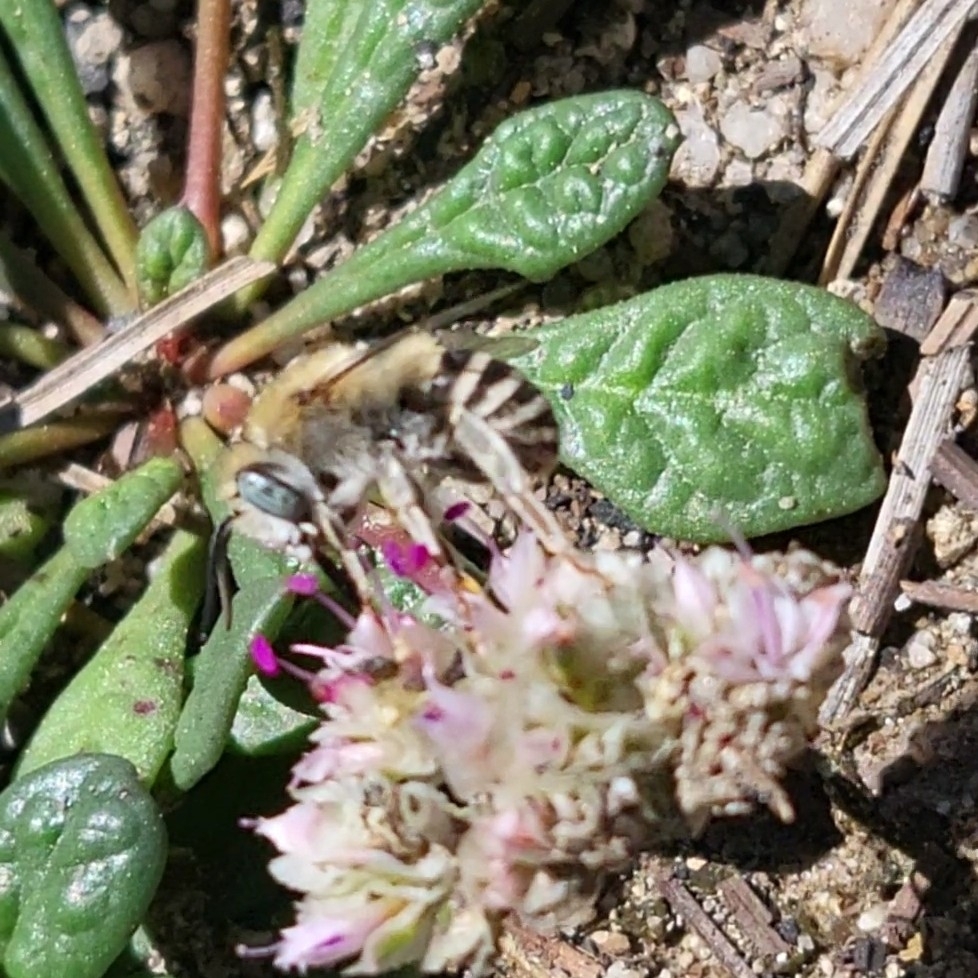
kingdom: Animalia
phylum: Arthropoda
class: Insecta
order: Hymenoptera
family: Apidae
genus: Anthophora
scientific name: Anthophora urbana
